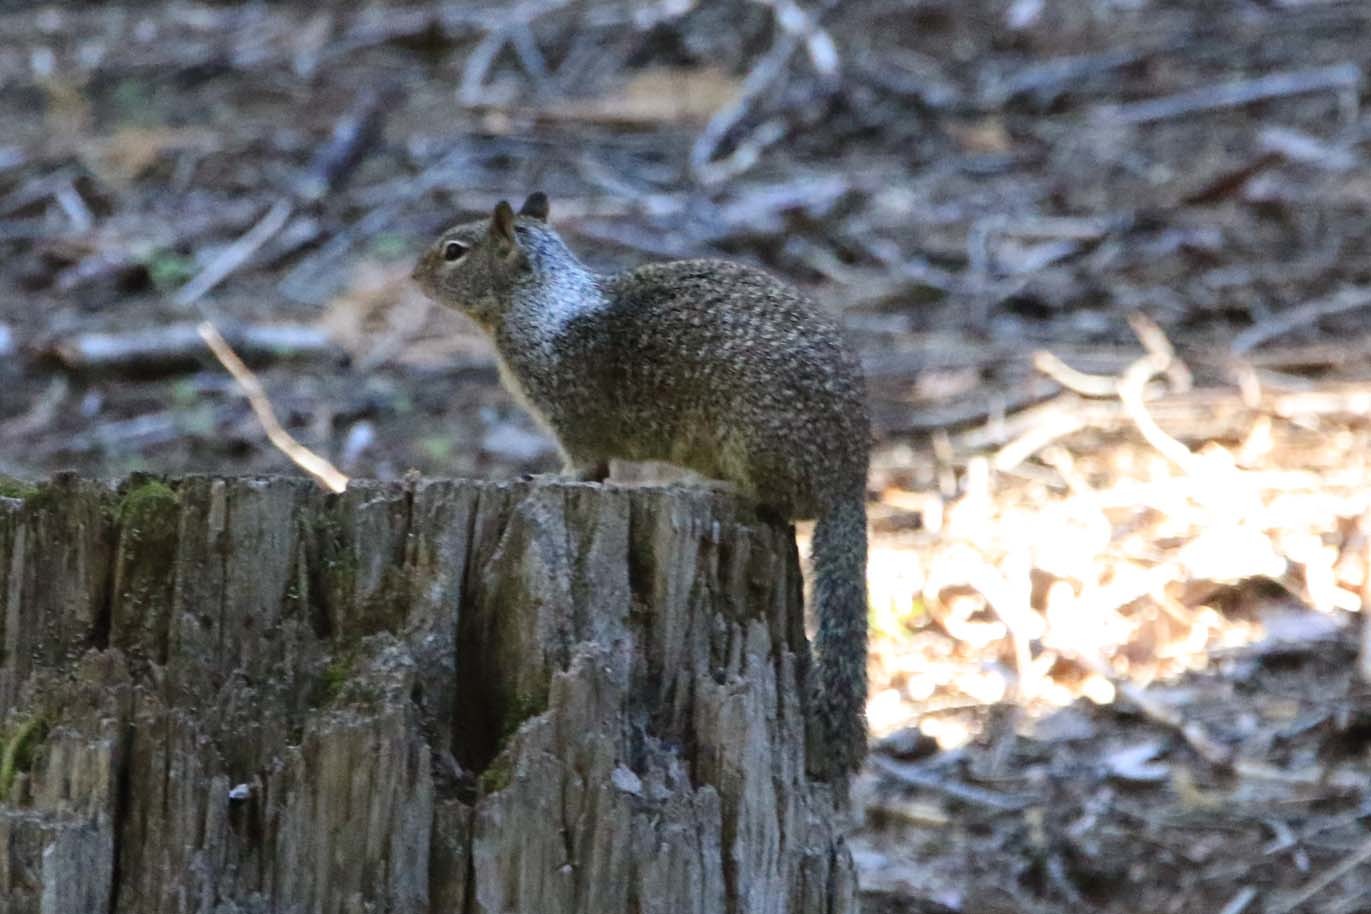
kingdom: Animalia
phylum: Chordata
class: Mammalia
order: Rodentia
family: Sciuridae
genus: Otospermophilus
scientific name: Otospermophilus beecheyi
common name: California ground squirrel
